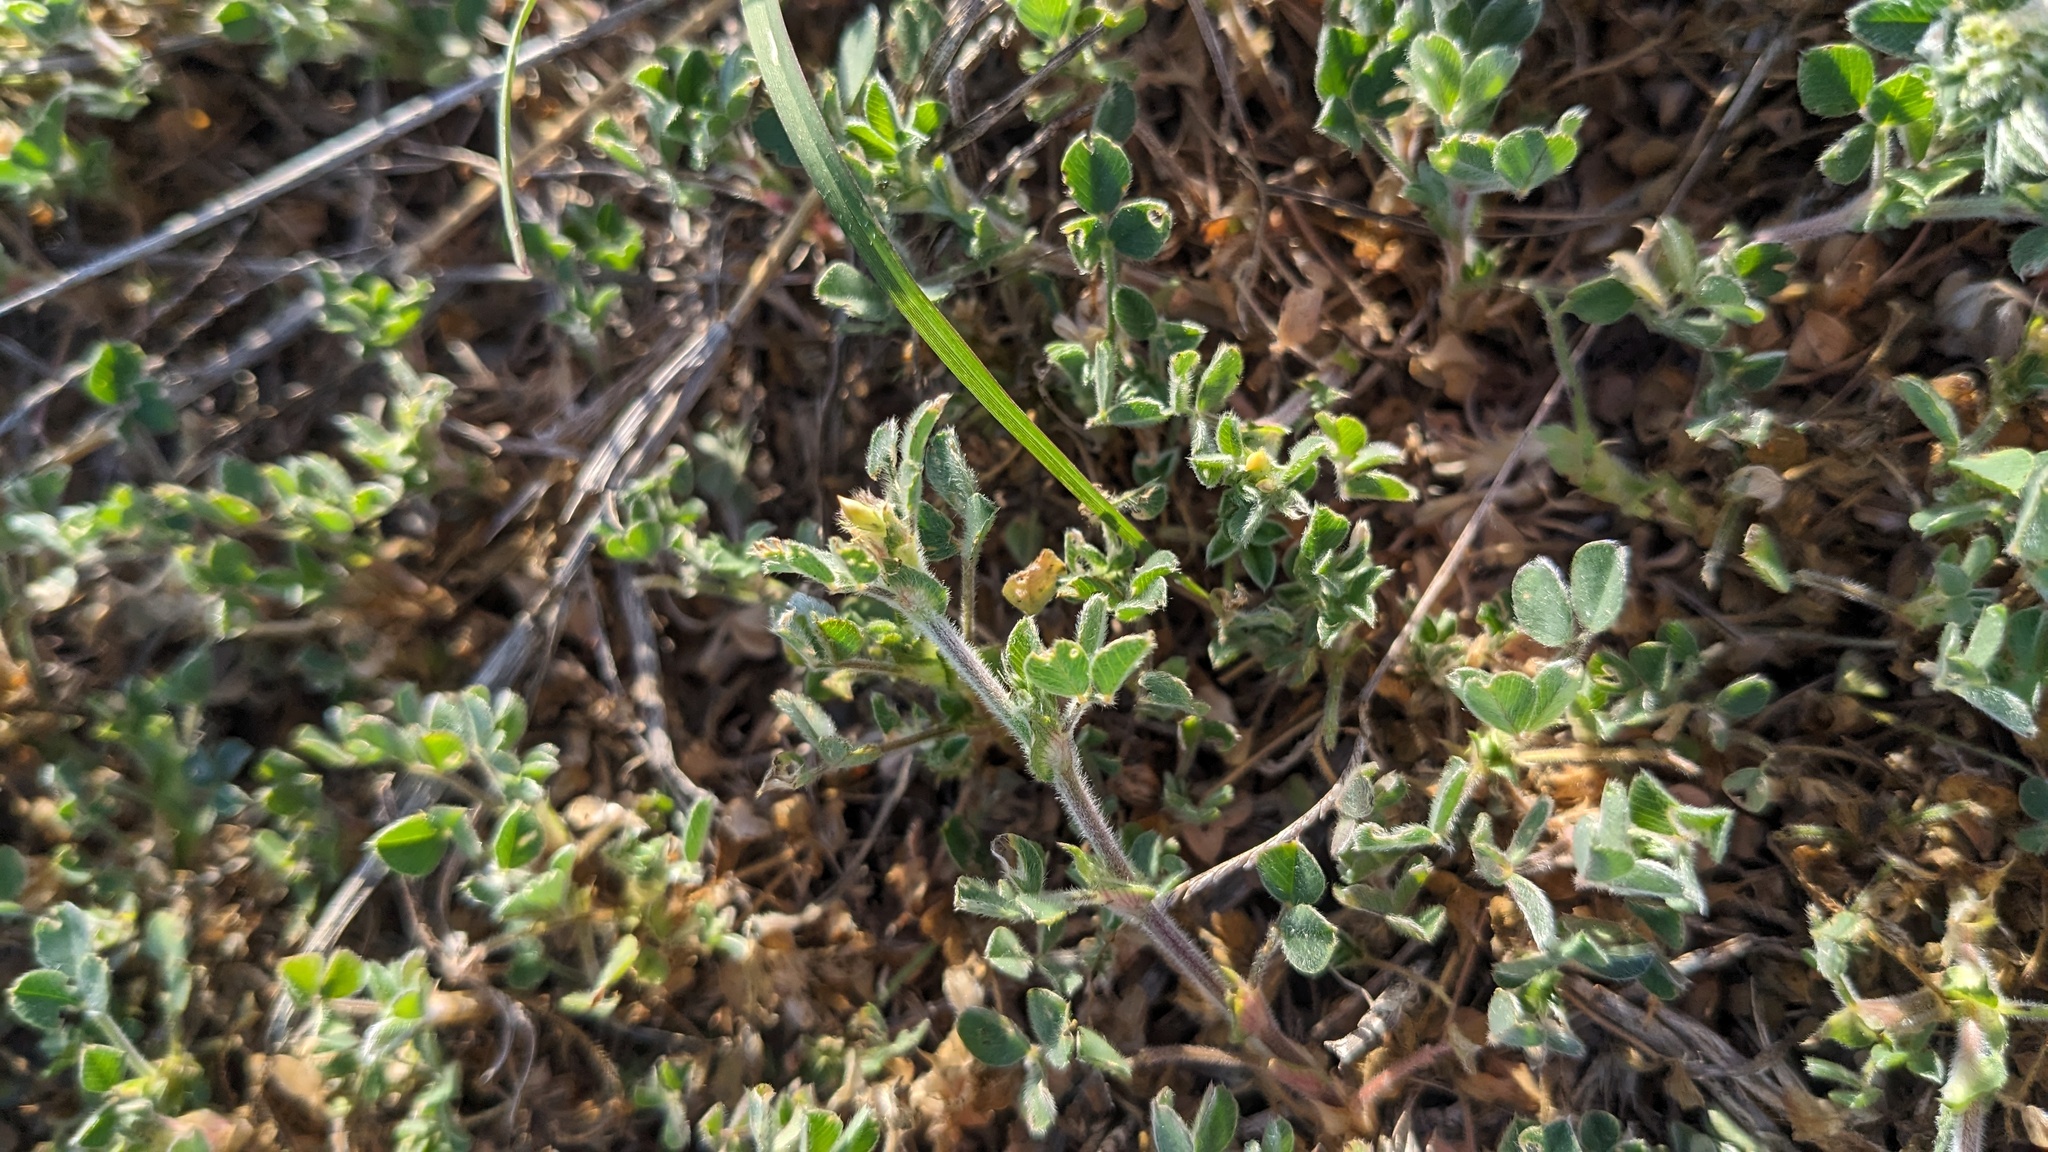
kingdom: Plantae
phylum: Tracheophyta
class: Magnoliopsida
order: Fabales
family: Fabaceae
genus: Medicago
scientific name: Medicago minima
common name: Little bur-clover
